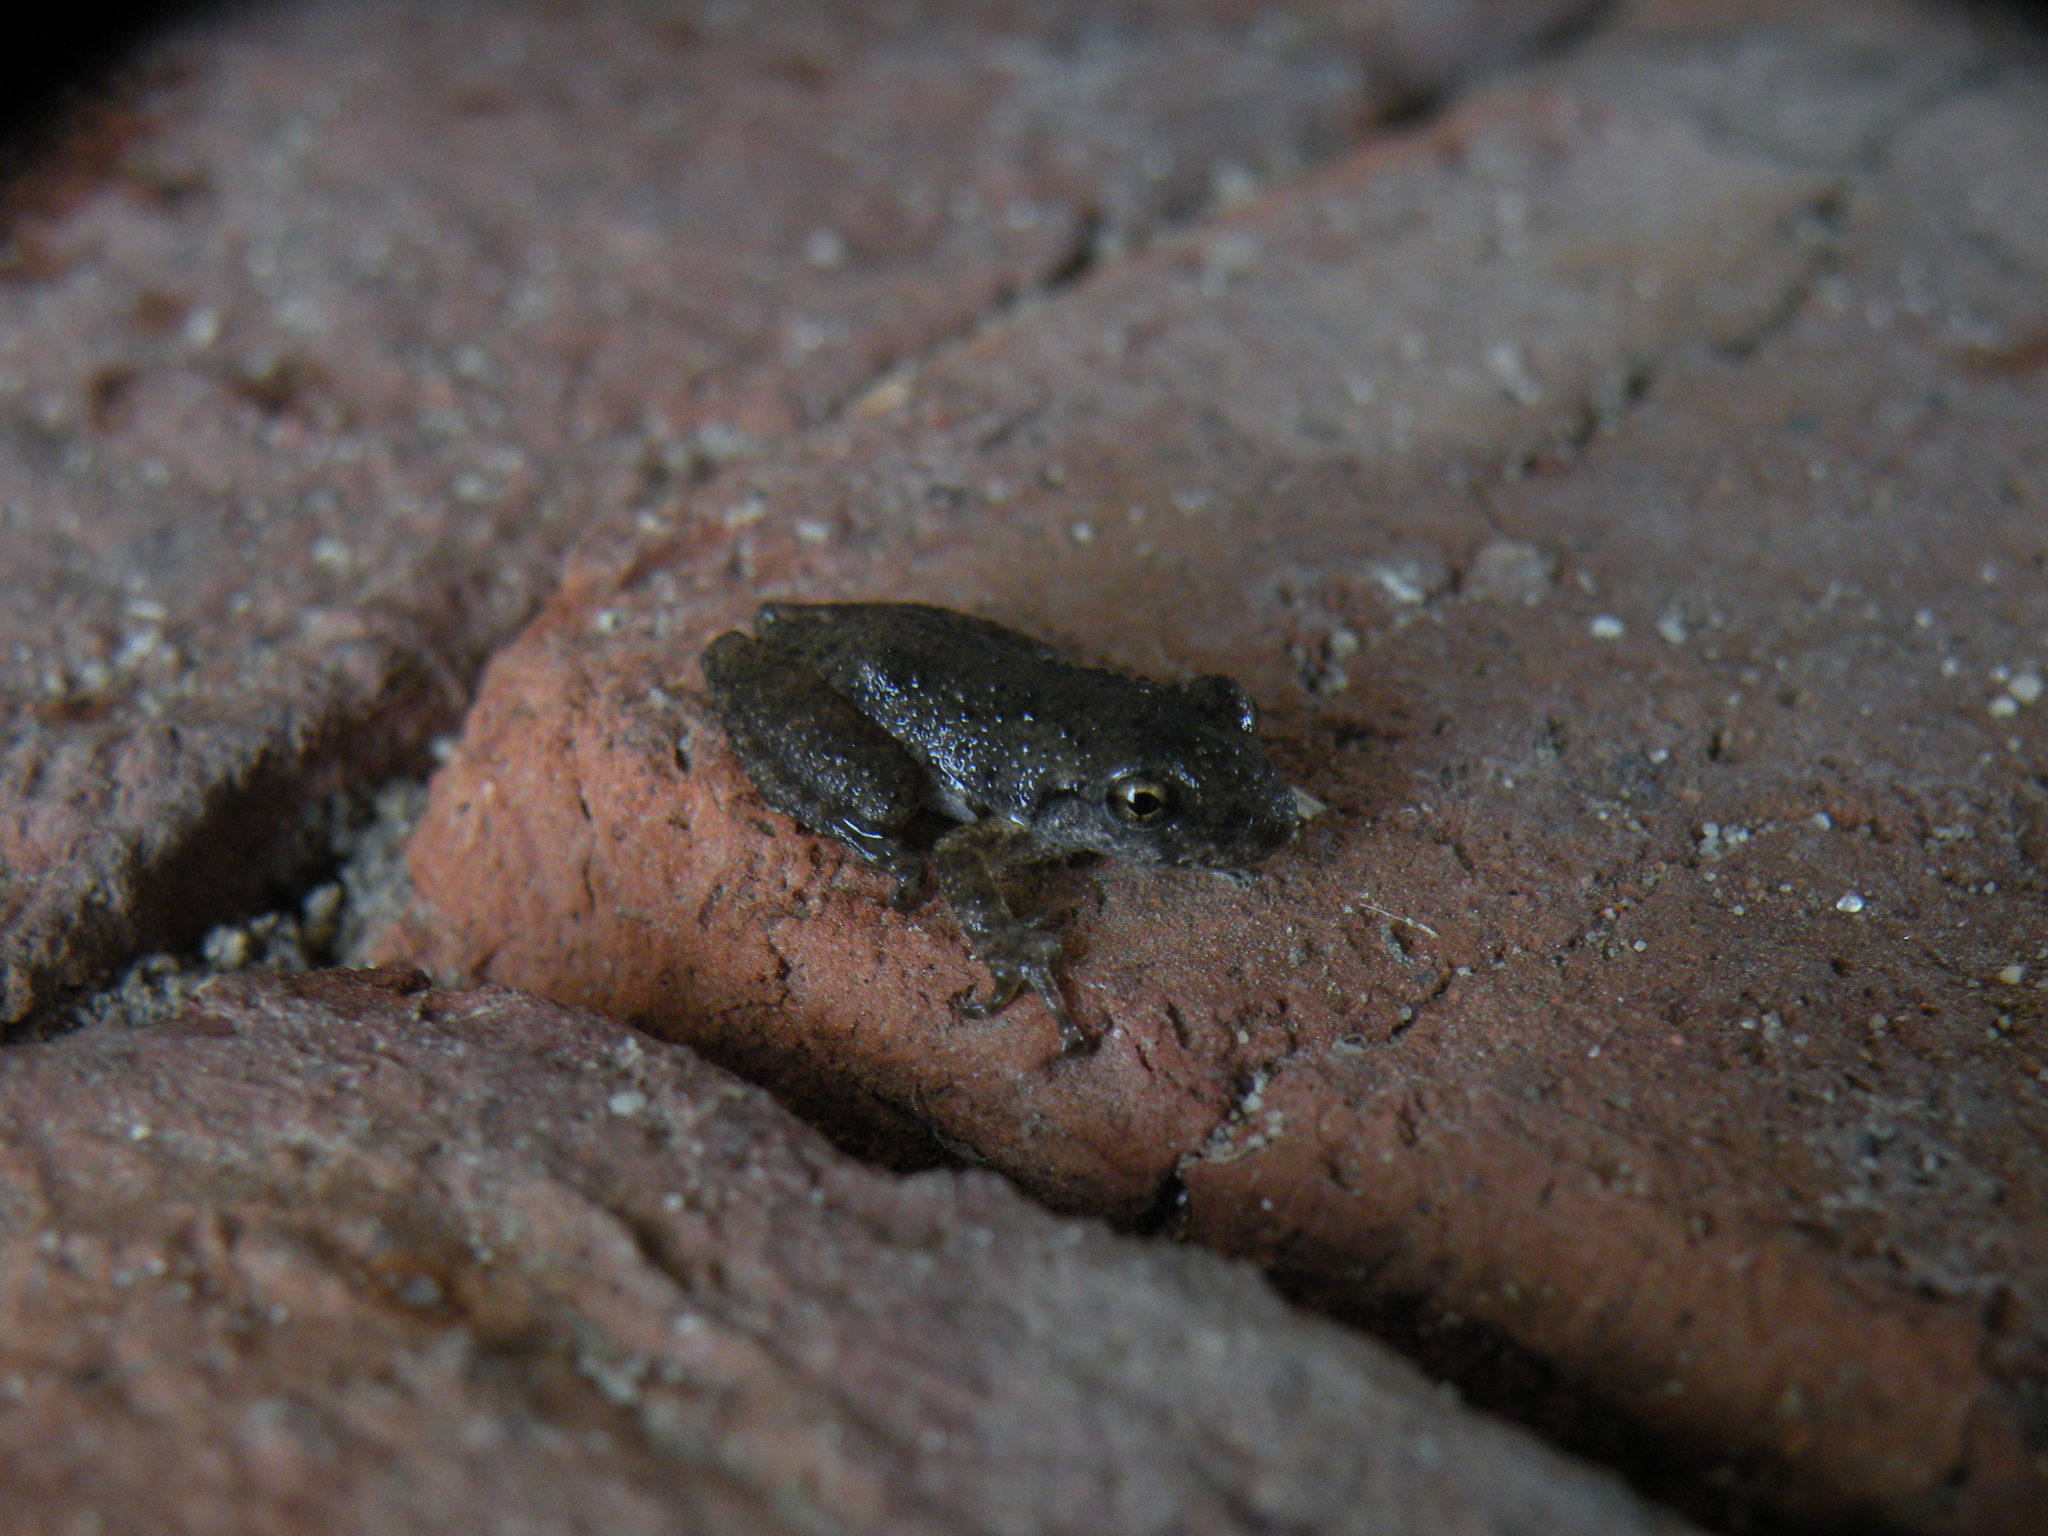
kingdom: Animalia
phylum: Chordata
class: Amphibia
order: Anura
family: Hylidae
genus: Scinax
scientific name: Scinax granulatus
